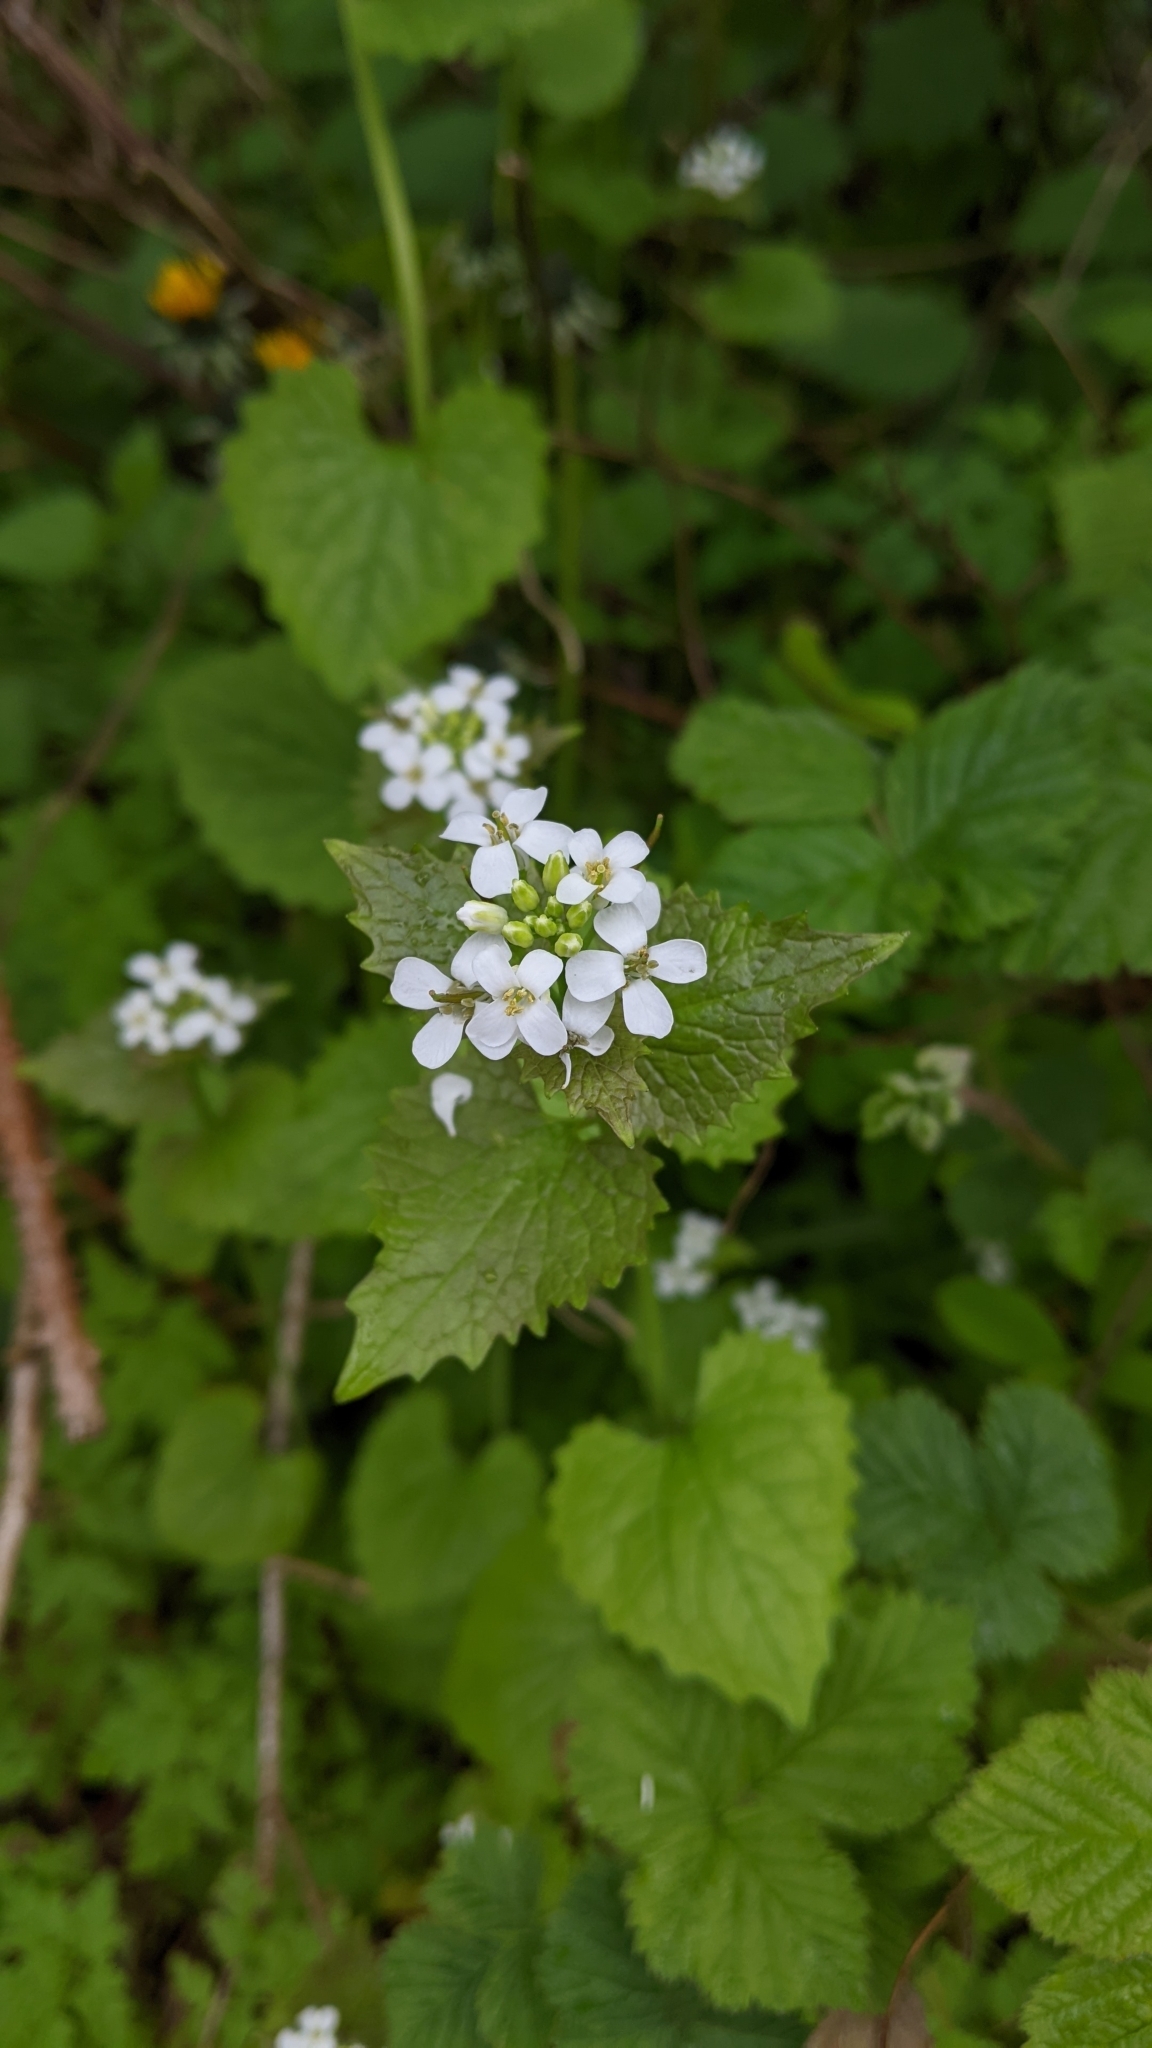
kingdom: Plantae
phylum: Tracheophyta
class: Magnoliopsida
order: Brassicales
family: Brassicaceae
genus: Alliaria
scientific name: Alliaria petiolata
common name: Garlic mustard
